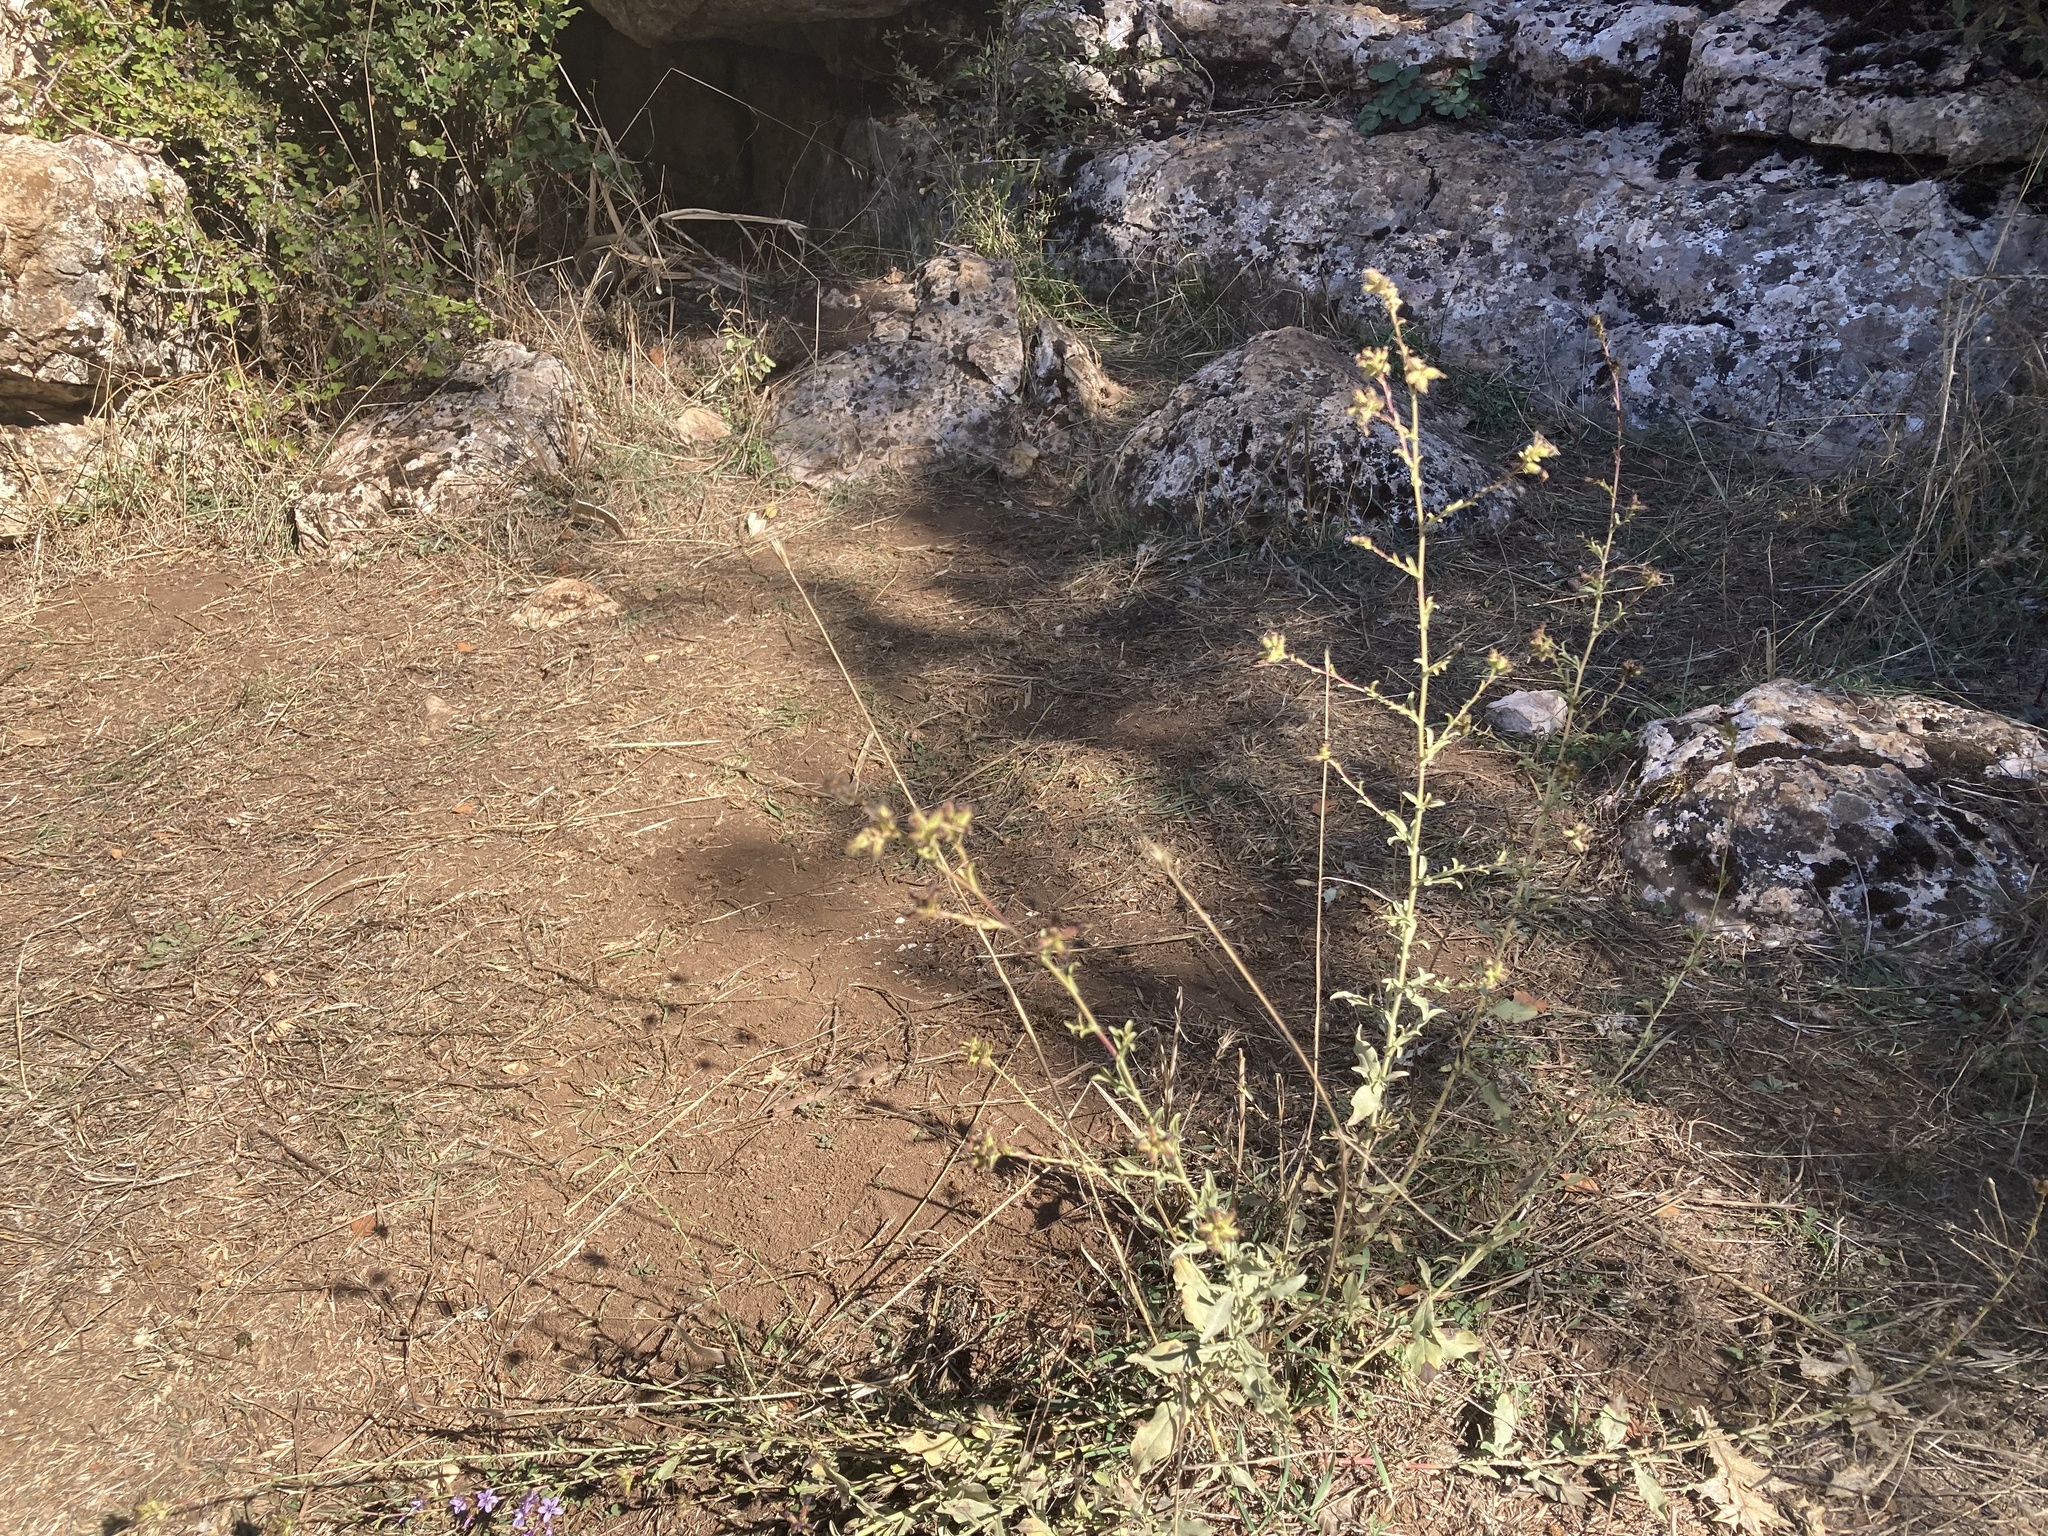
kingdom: Plantae
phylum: Tracheophyta
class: Magnoliopsida
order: Caryophyllales
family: Plumbaginaceae
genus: Plumbago
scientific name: Plumbago europaea
